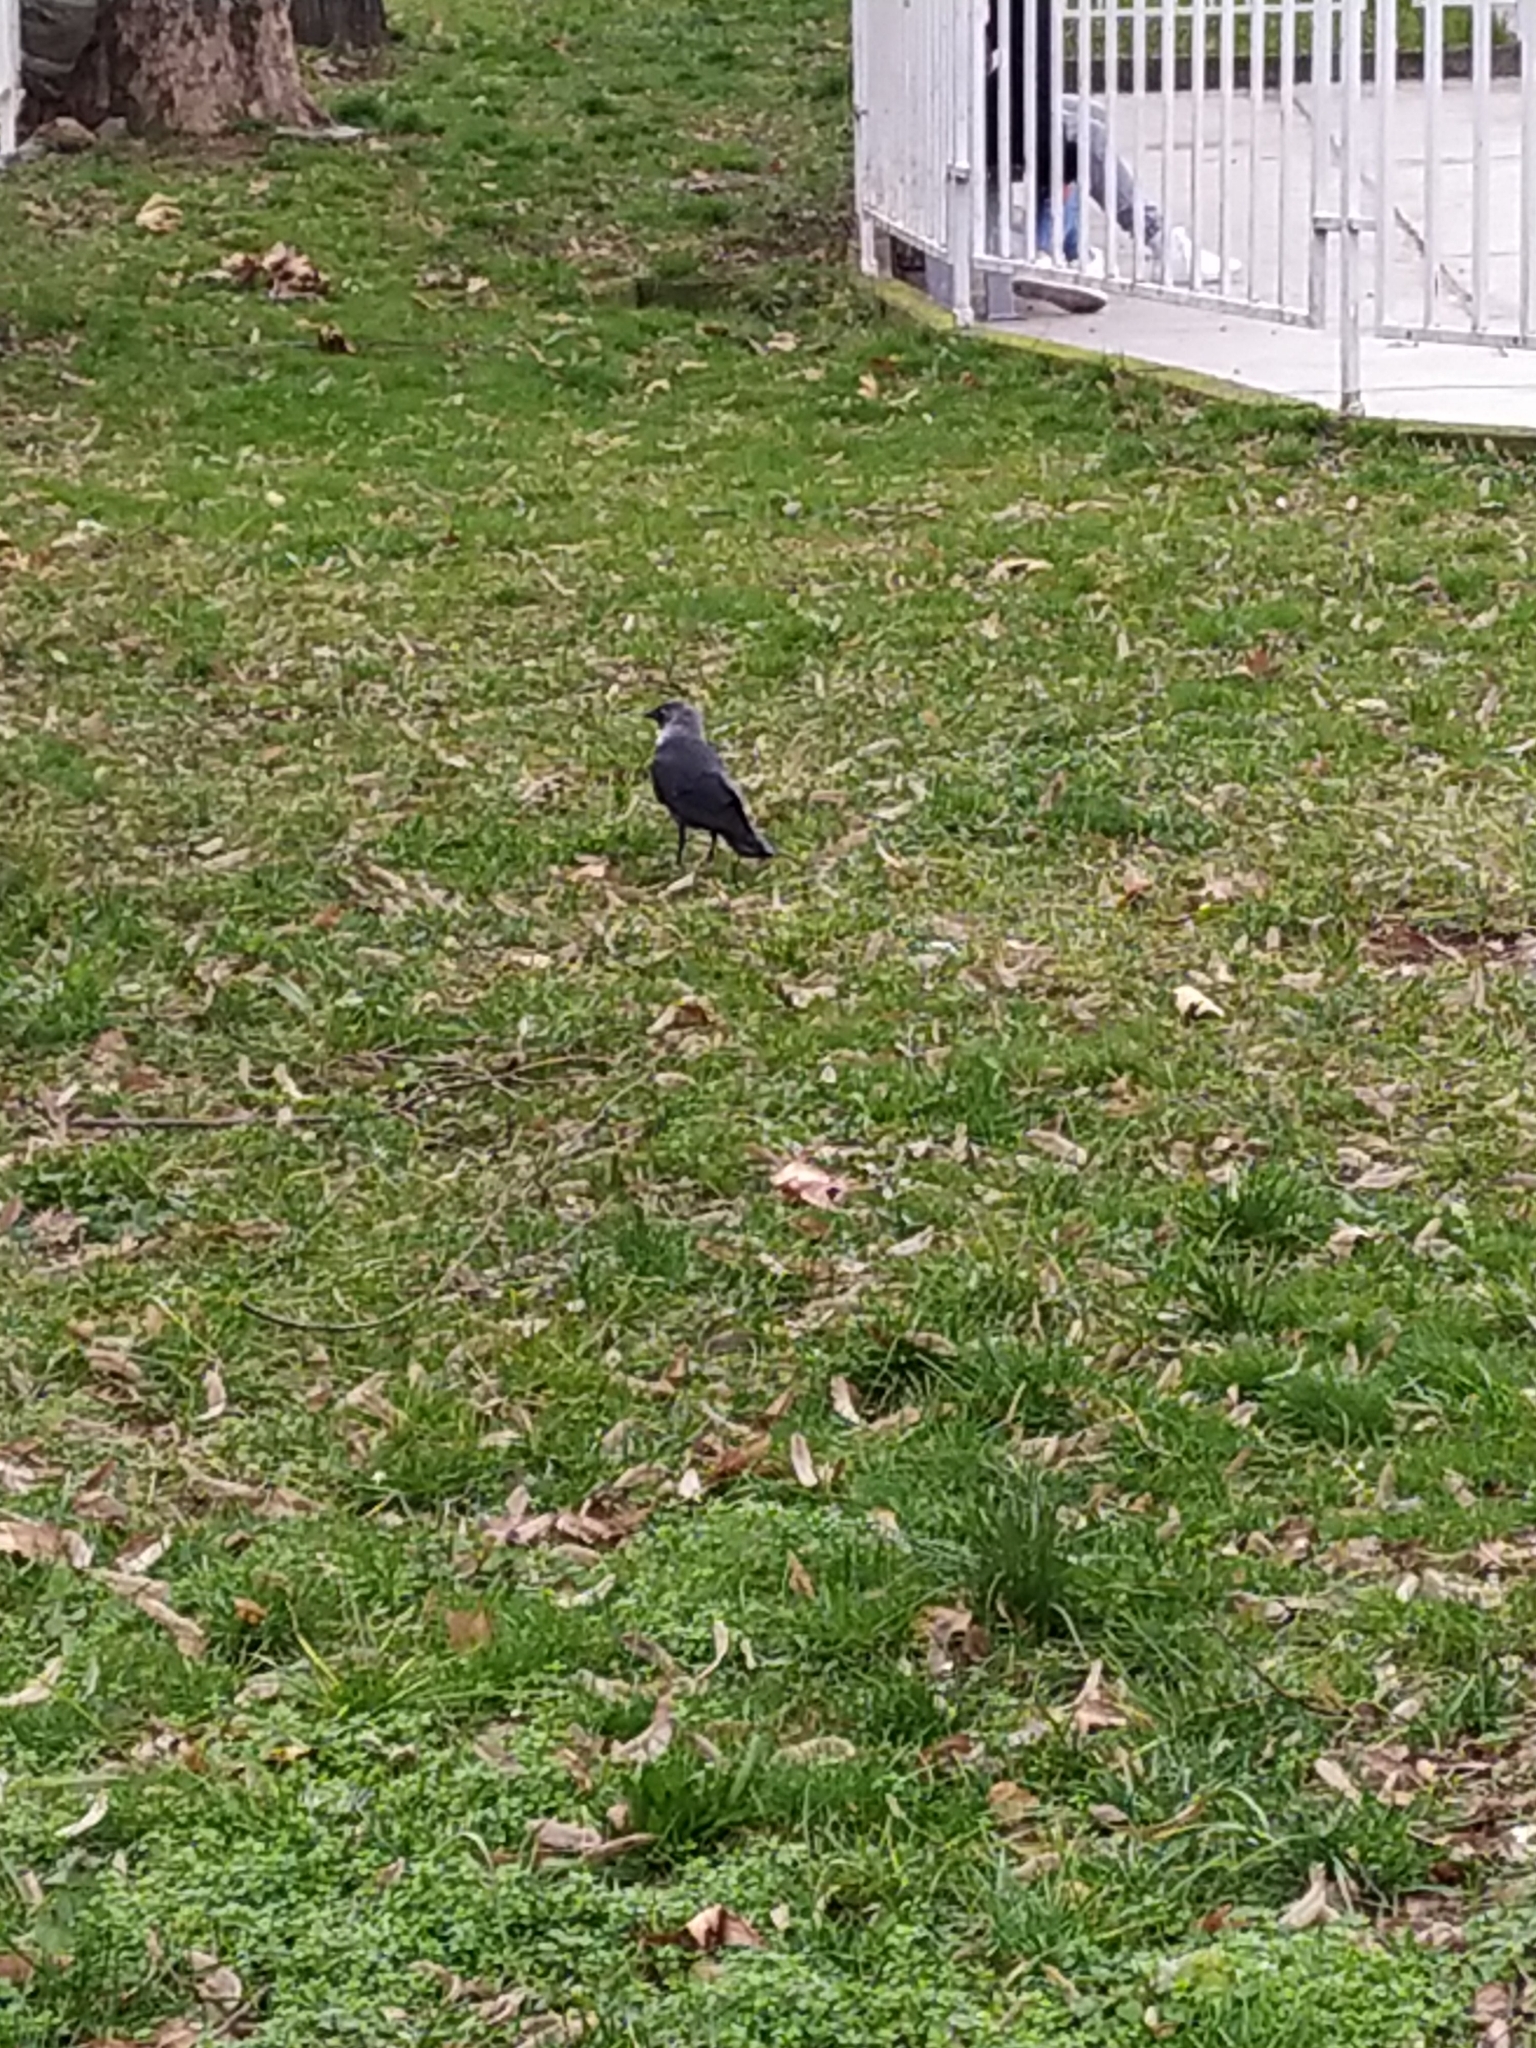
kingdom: Animalia
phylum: Chordata
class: Aves
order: Passeriformes
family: Corvidae
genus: Coloeus
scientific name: Coloeus monedula
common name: Western jackdaw
